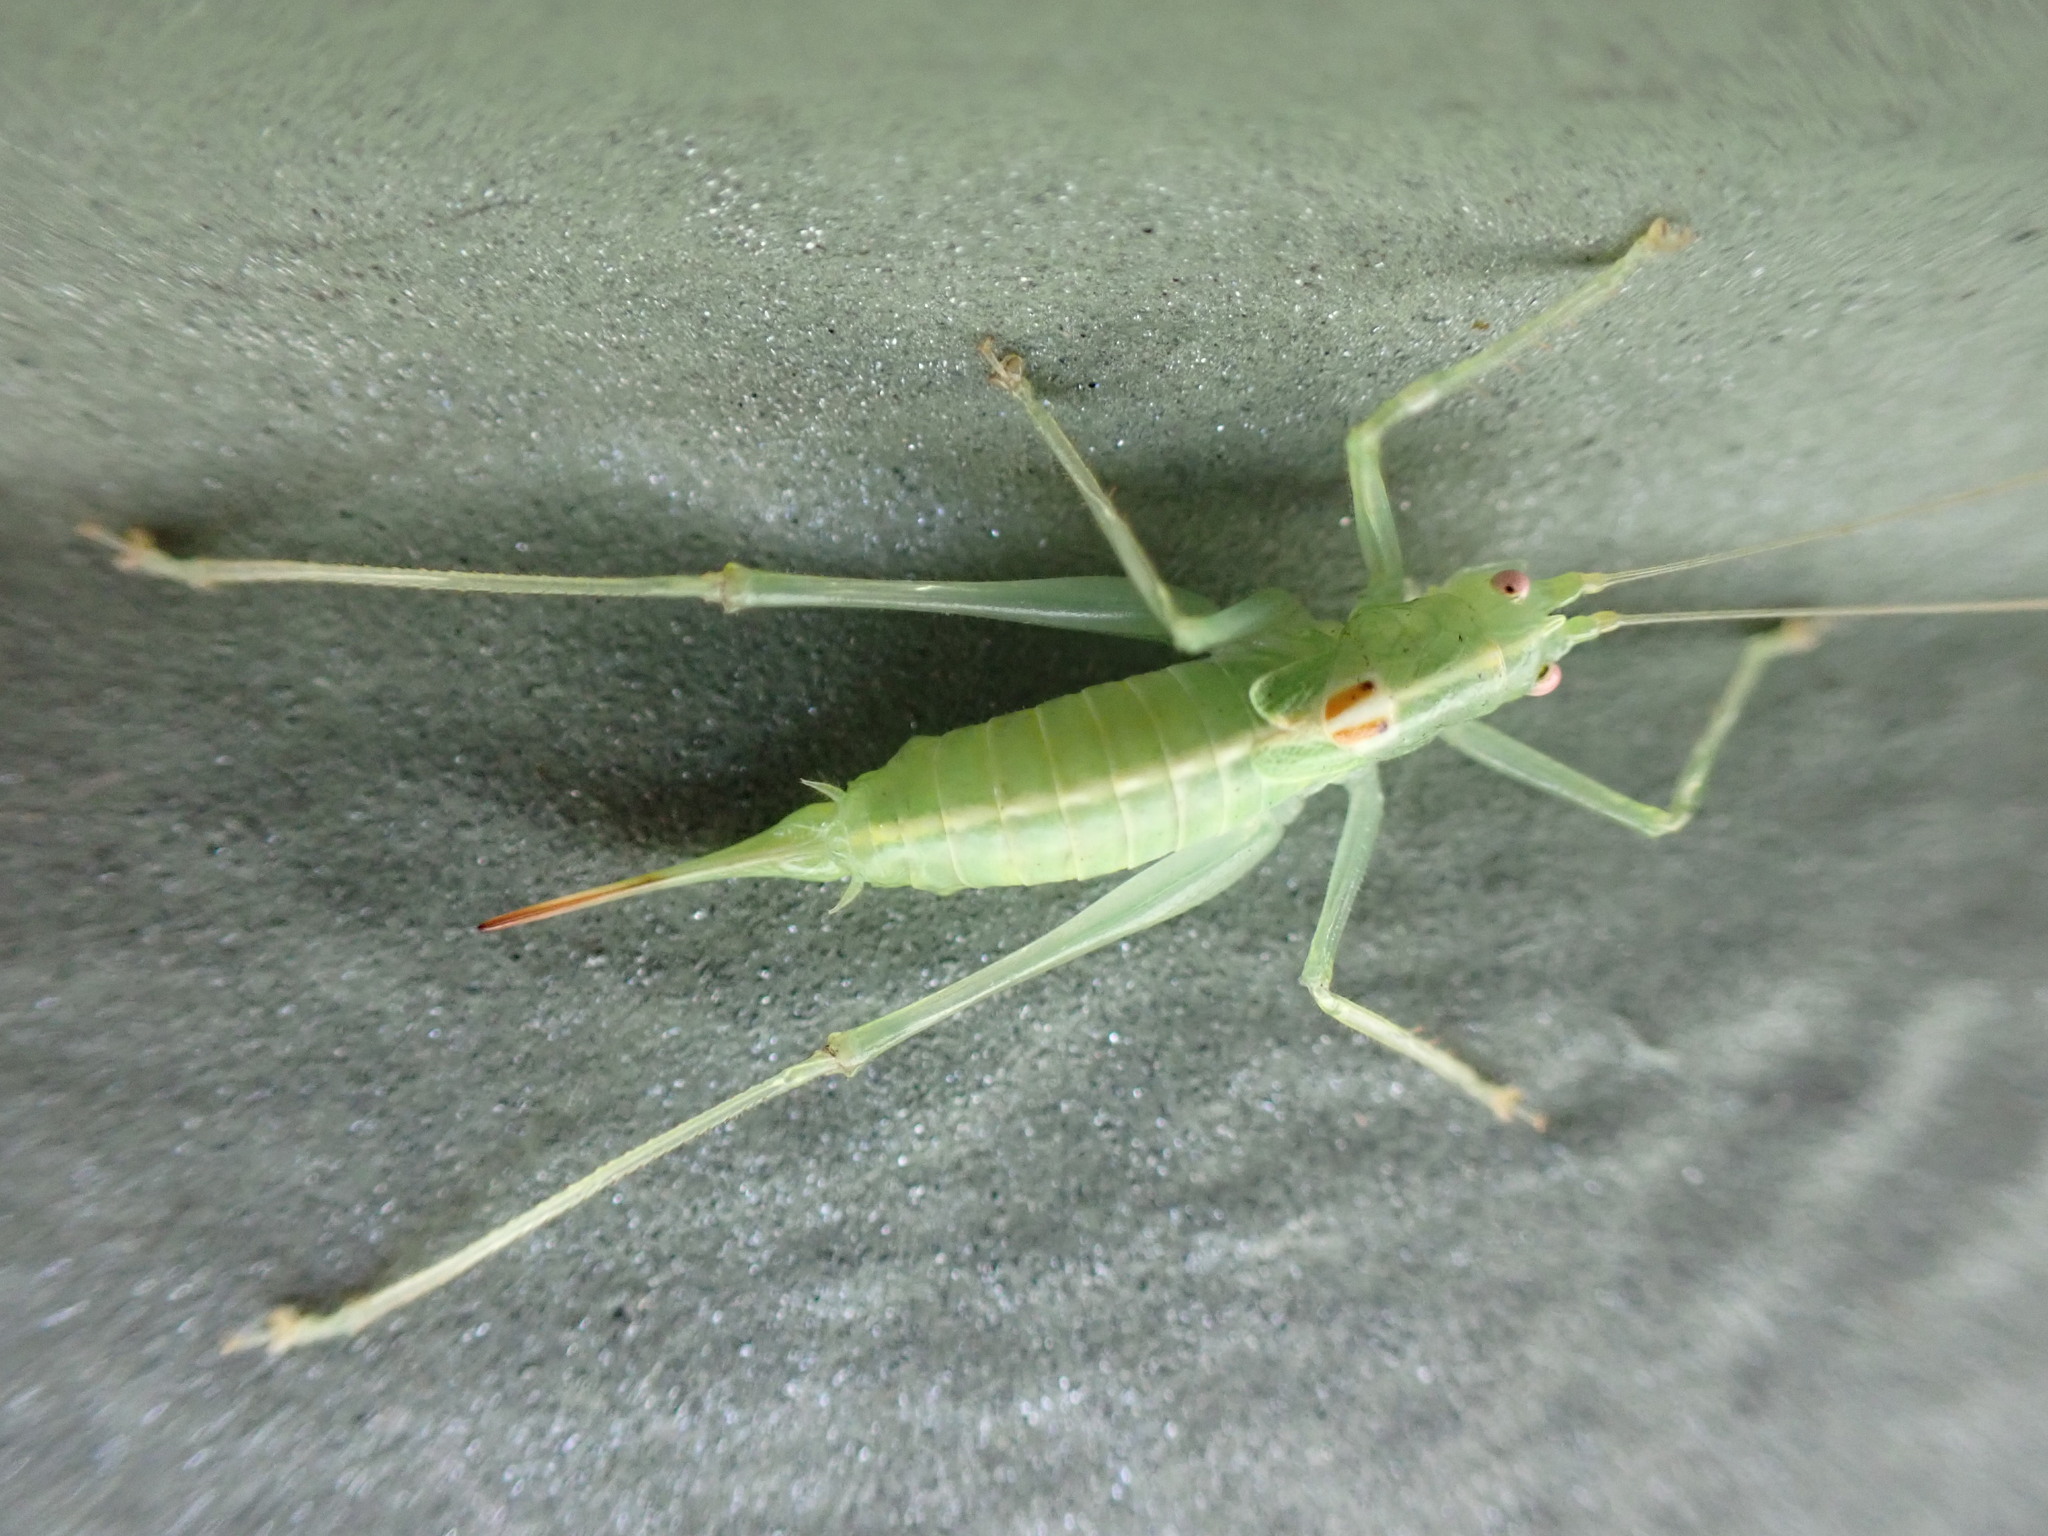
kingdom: Animalia
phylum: Arthropoda
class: Insecta
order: Orthoptera
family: Tettigoniidae
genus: Meconema
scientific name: Meconema meridionale
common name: Southern oak bush-cricket
